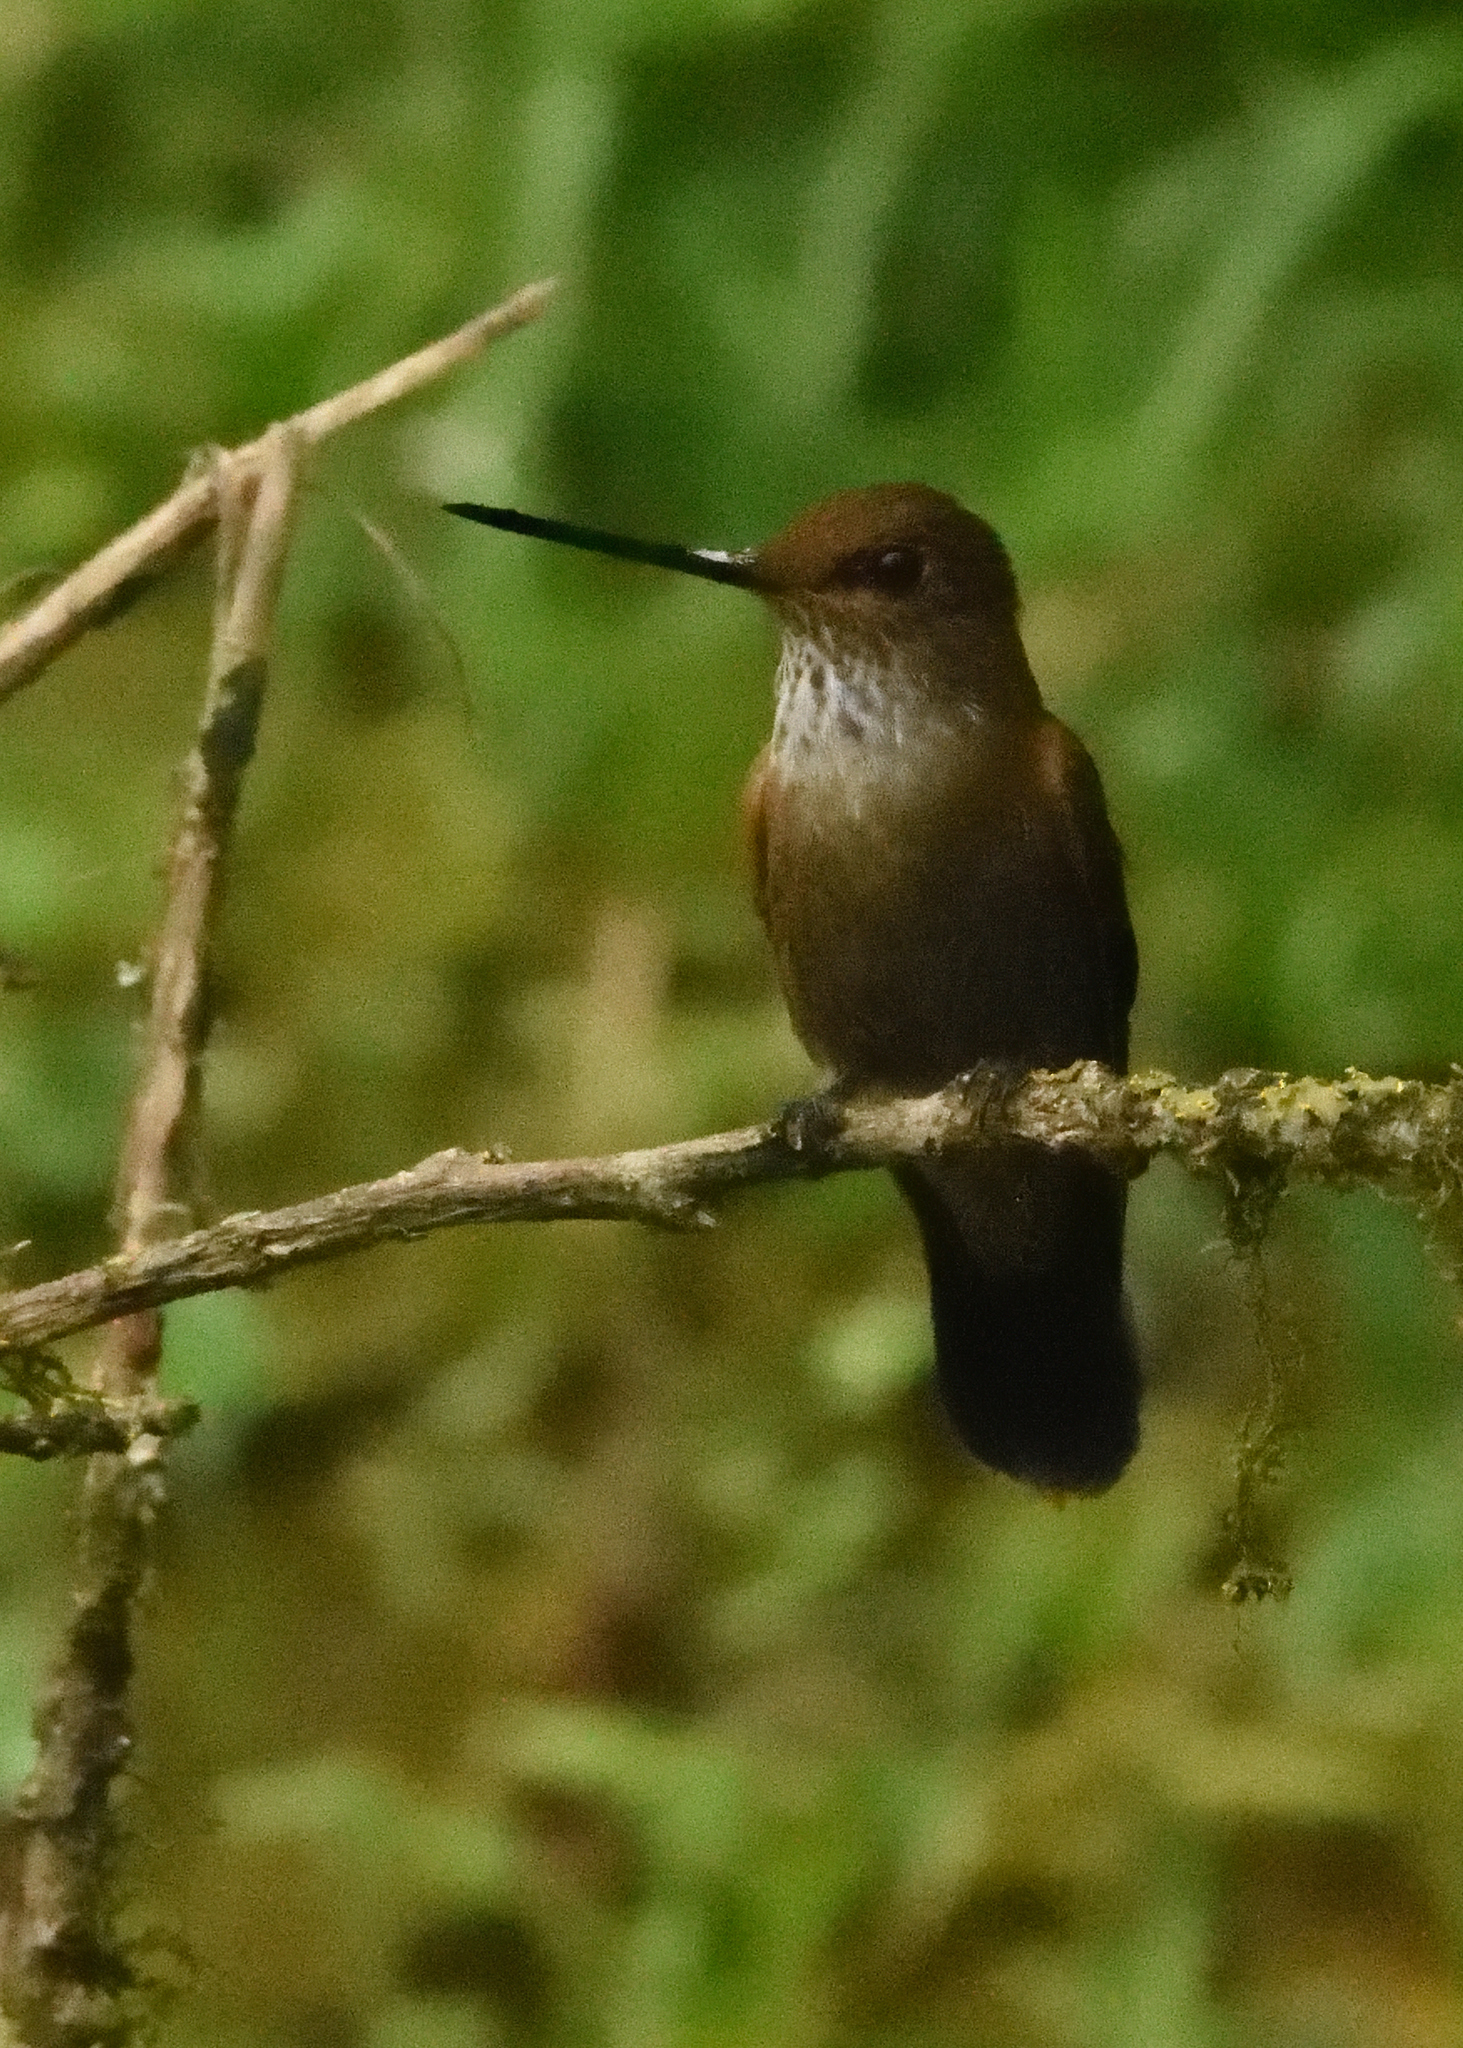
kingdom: Animalia
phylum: Chordata
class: Aves
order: Apodiformes
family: Trochilidae
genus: Coeligena
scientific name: Coeligena coeligena
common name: Bronzy inca
